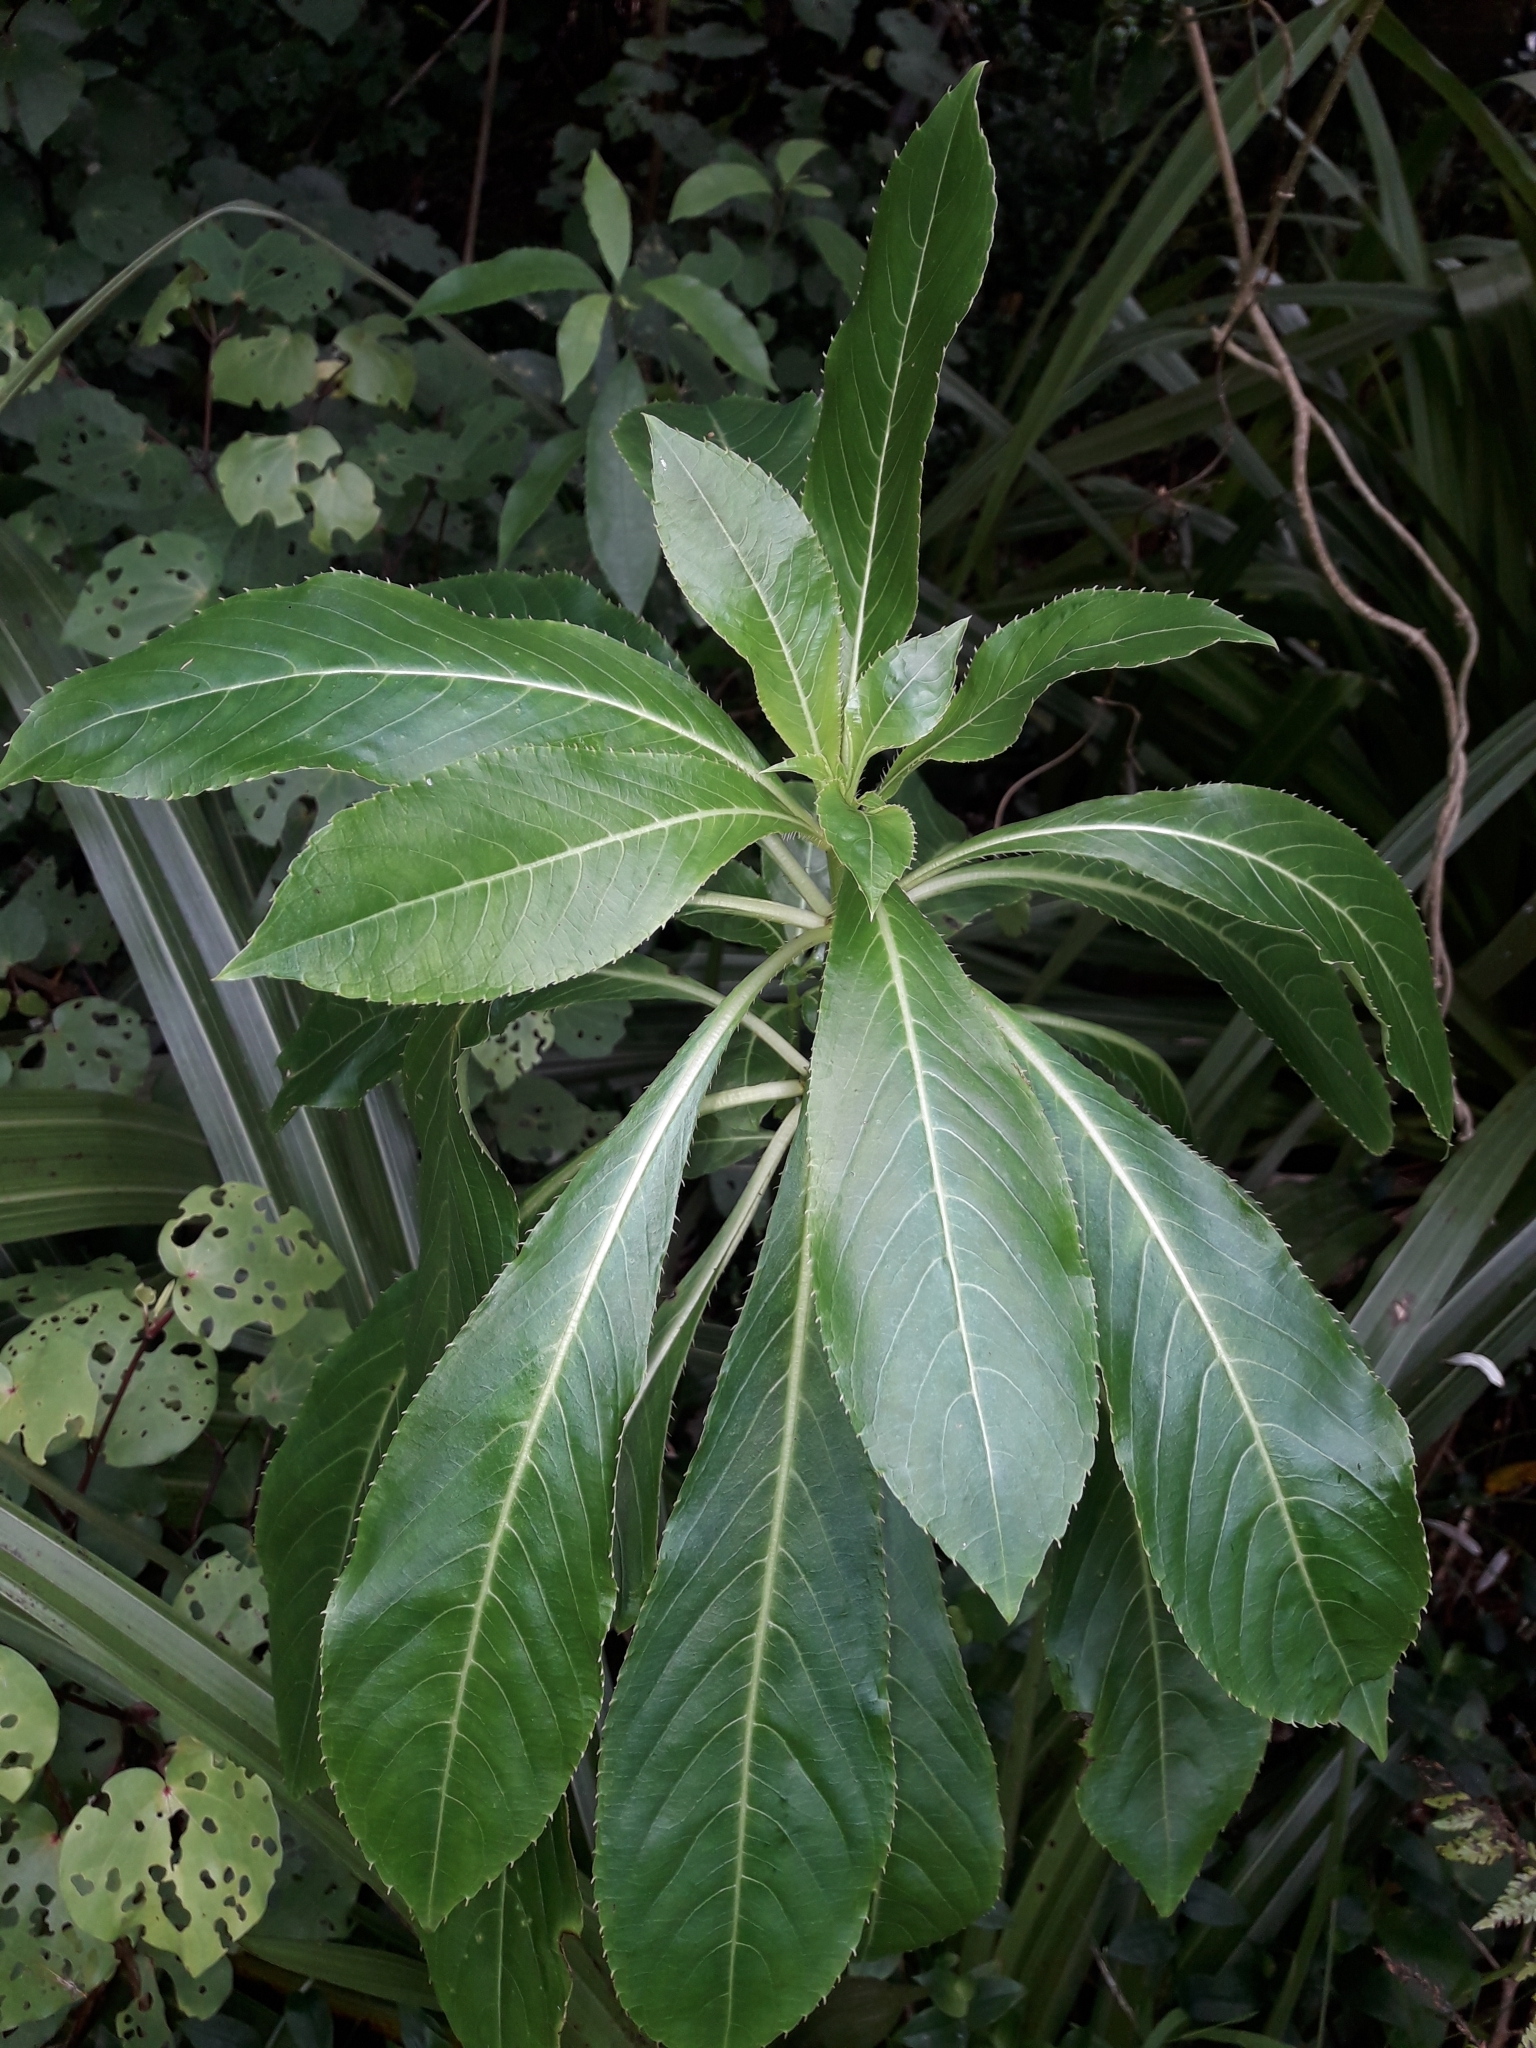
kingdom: Plantae
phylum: Tracheophyta
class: Magnoliopsida
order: Ericales
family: Balsaminaceae
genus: Impatiens
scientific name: Impatiens sodenii
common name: Oliver's touch-me-not
